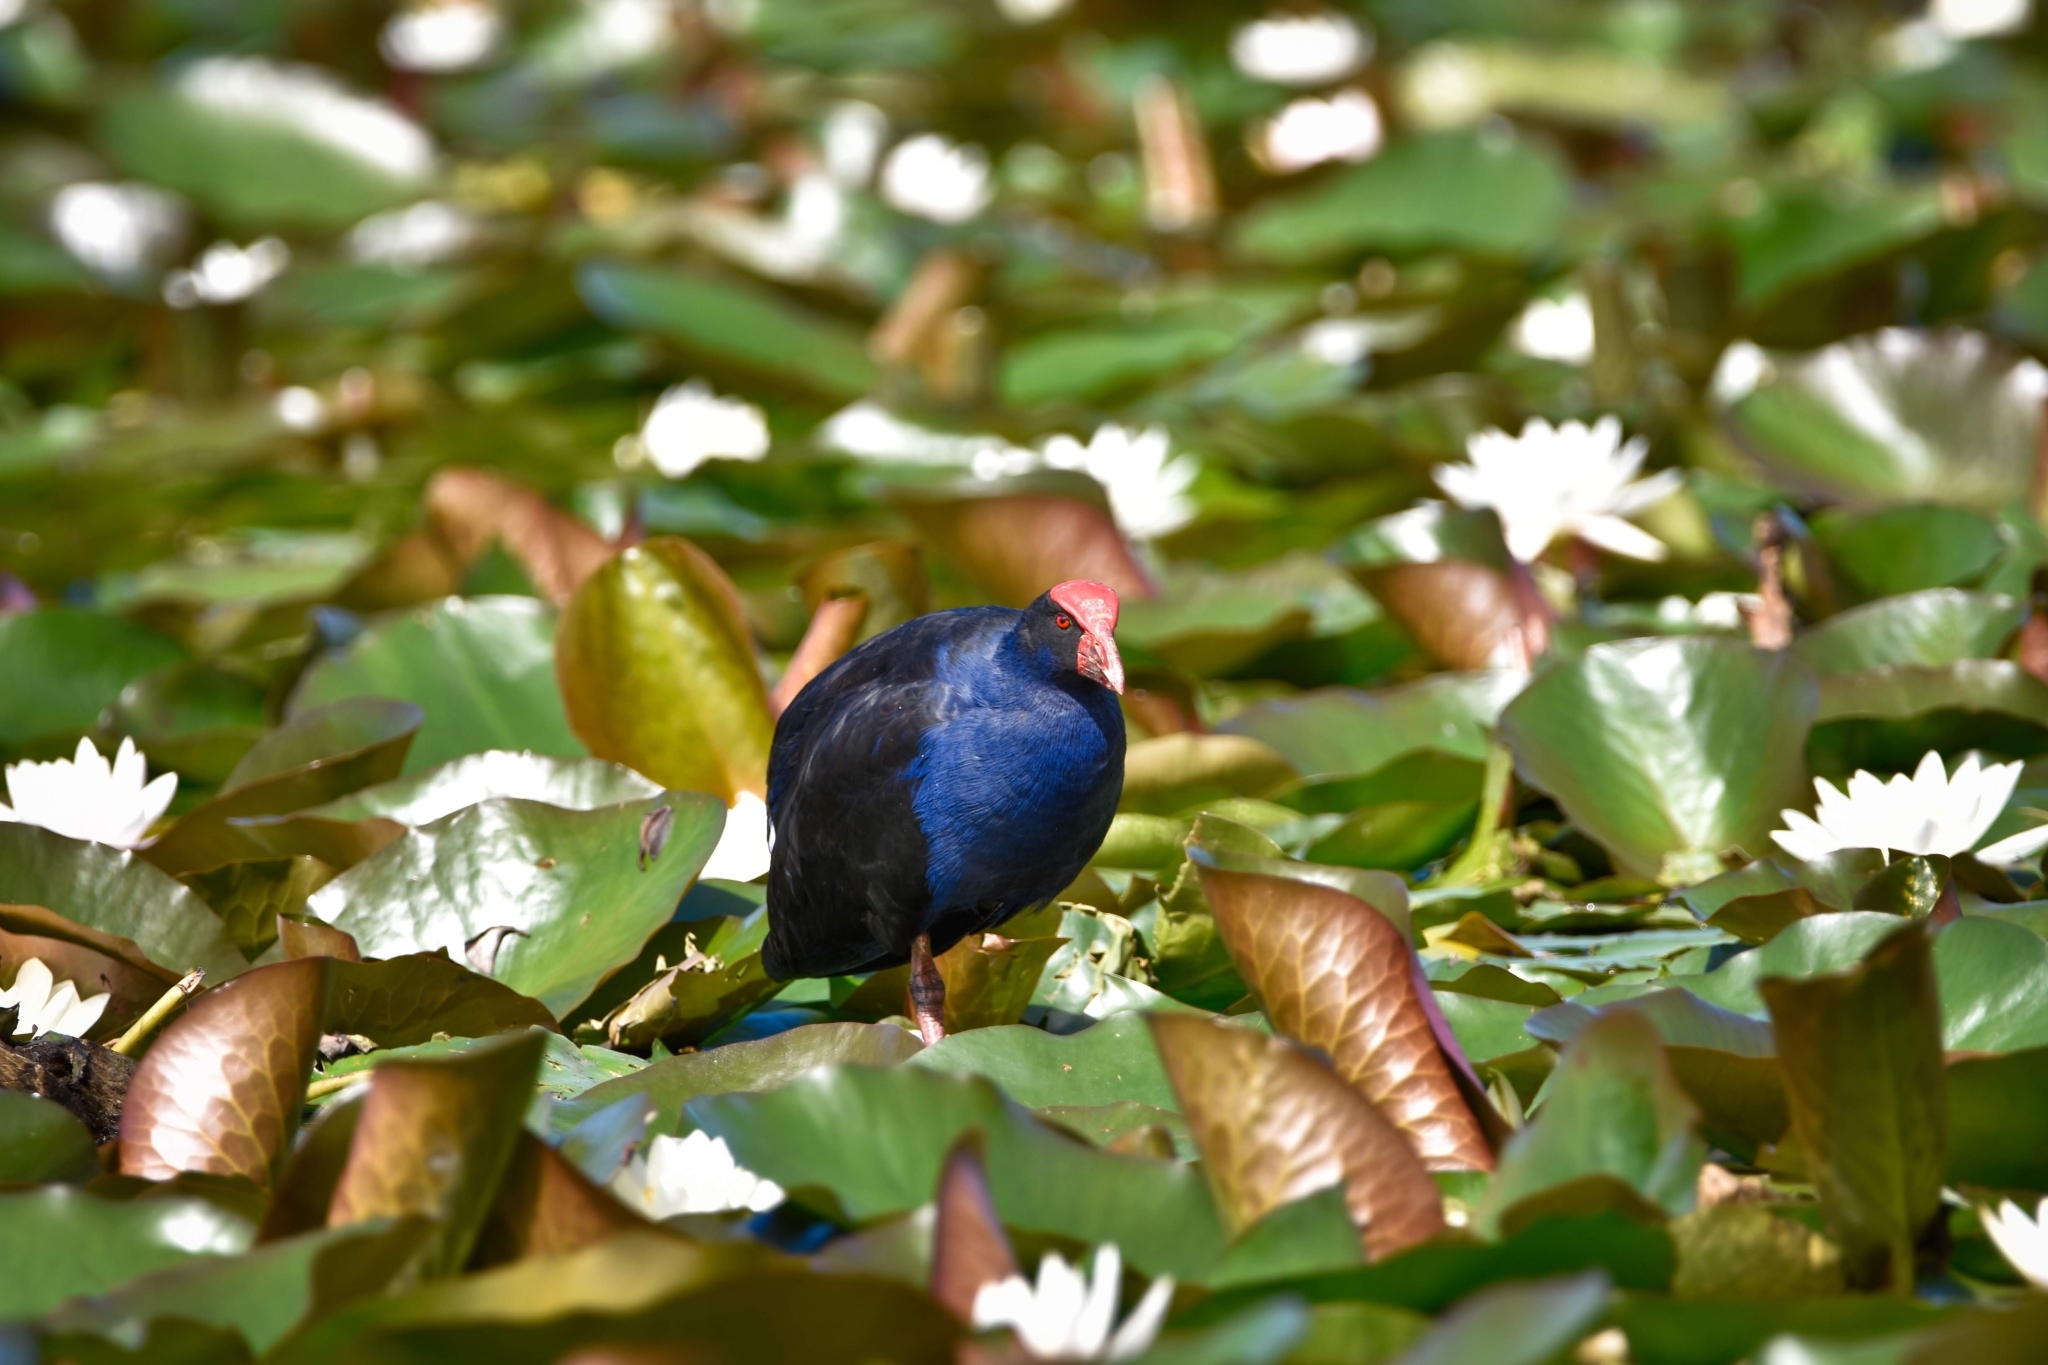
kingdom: Animalia
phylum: Chordata
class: Aves
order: Gruiformes
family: Rallidae
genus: Porphyrio
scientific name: Porphyrio melanotus
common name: Australasian swamphen
